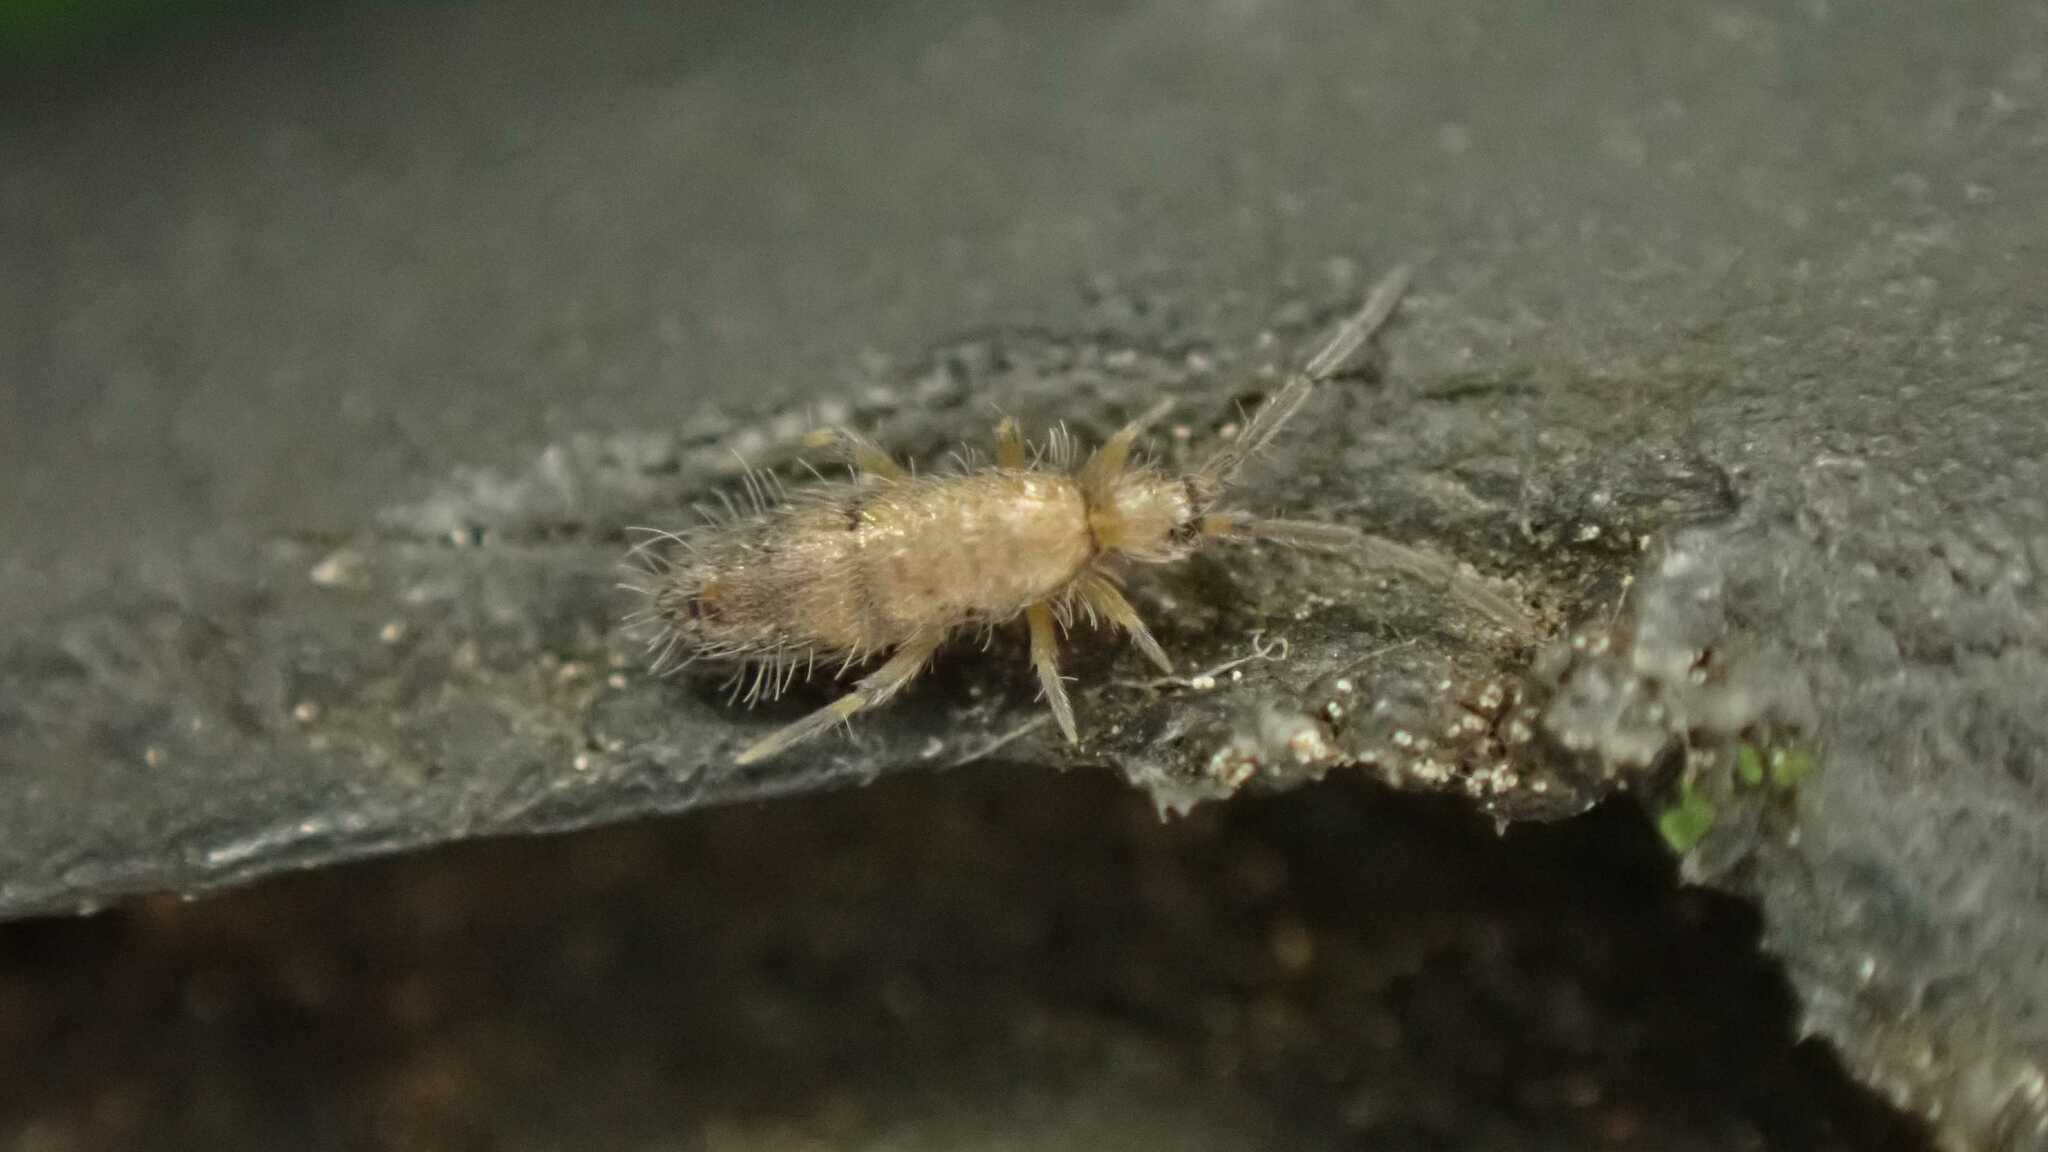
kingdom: Animalia
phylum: Arthropoda
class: Collembola
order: Entomobryomorpha
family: Entomobryidae
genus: Willowsia
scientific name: Willowsia nigromaculata
